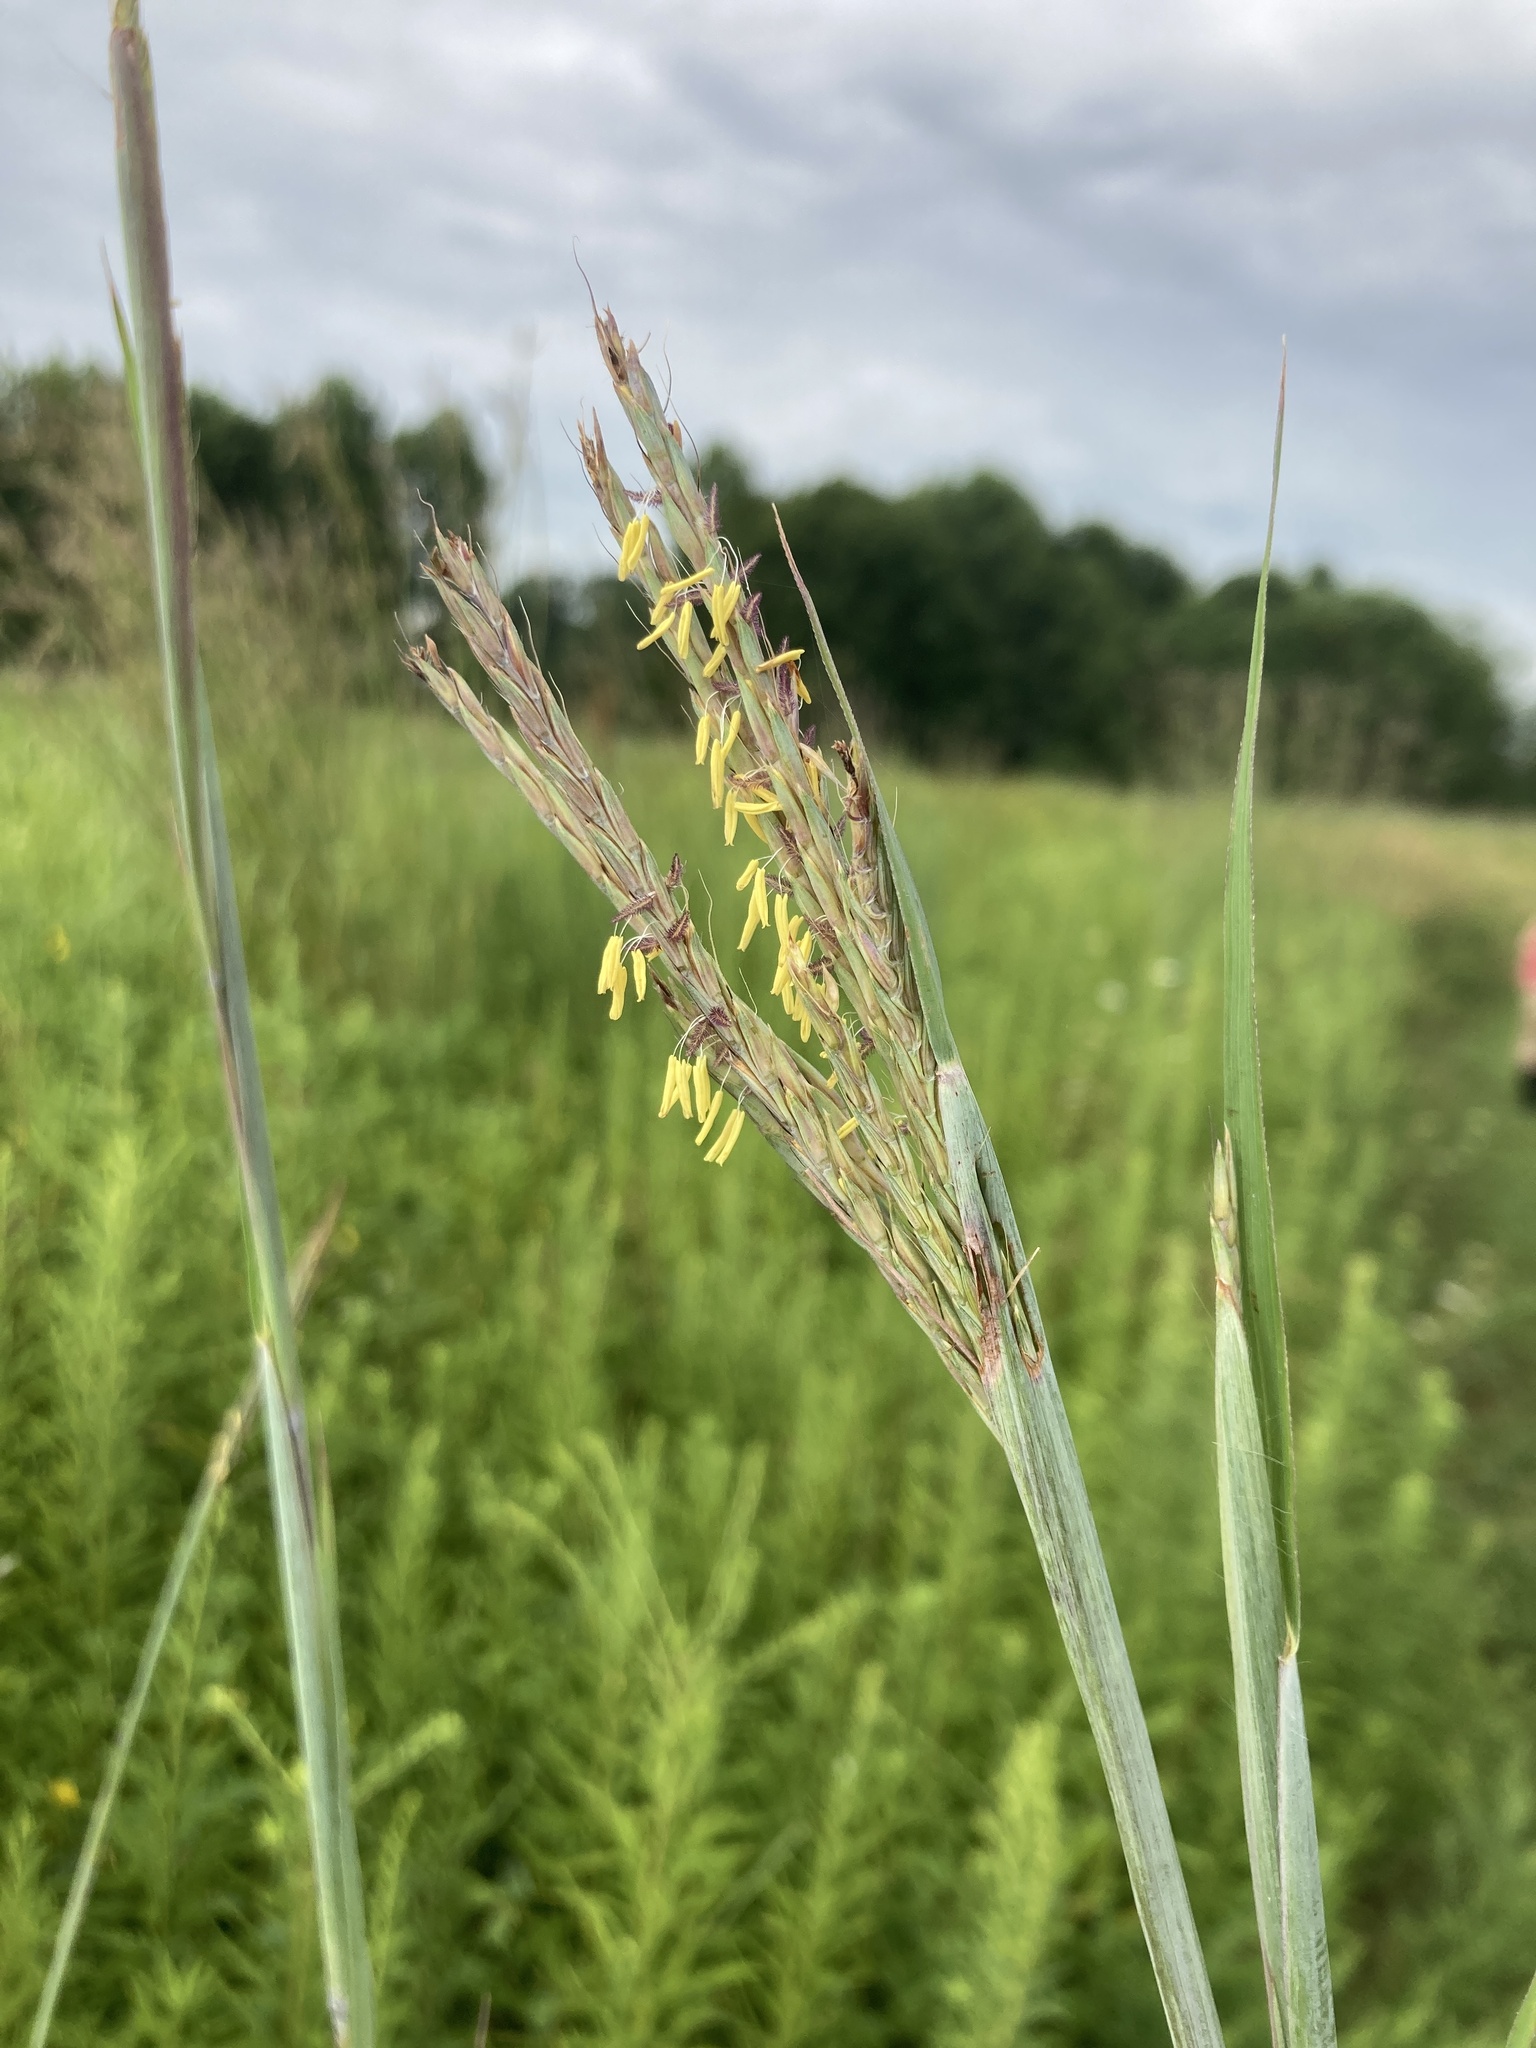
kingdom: Plantae
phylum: Tracheophyta
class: Liliopsida
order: Poales
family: Poaceae
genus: Andropogon
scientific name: Andropogon gerardi
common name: Big bluestem
